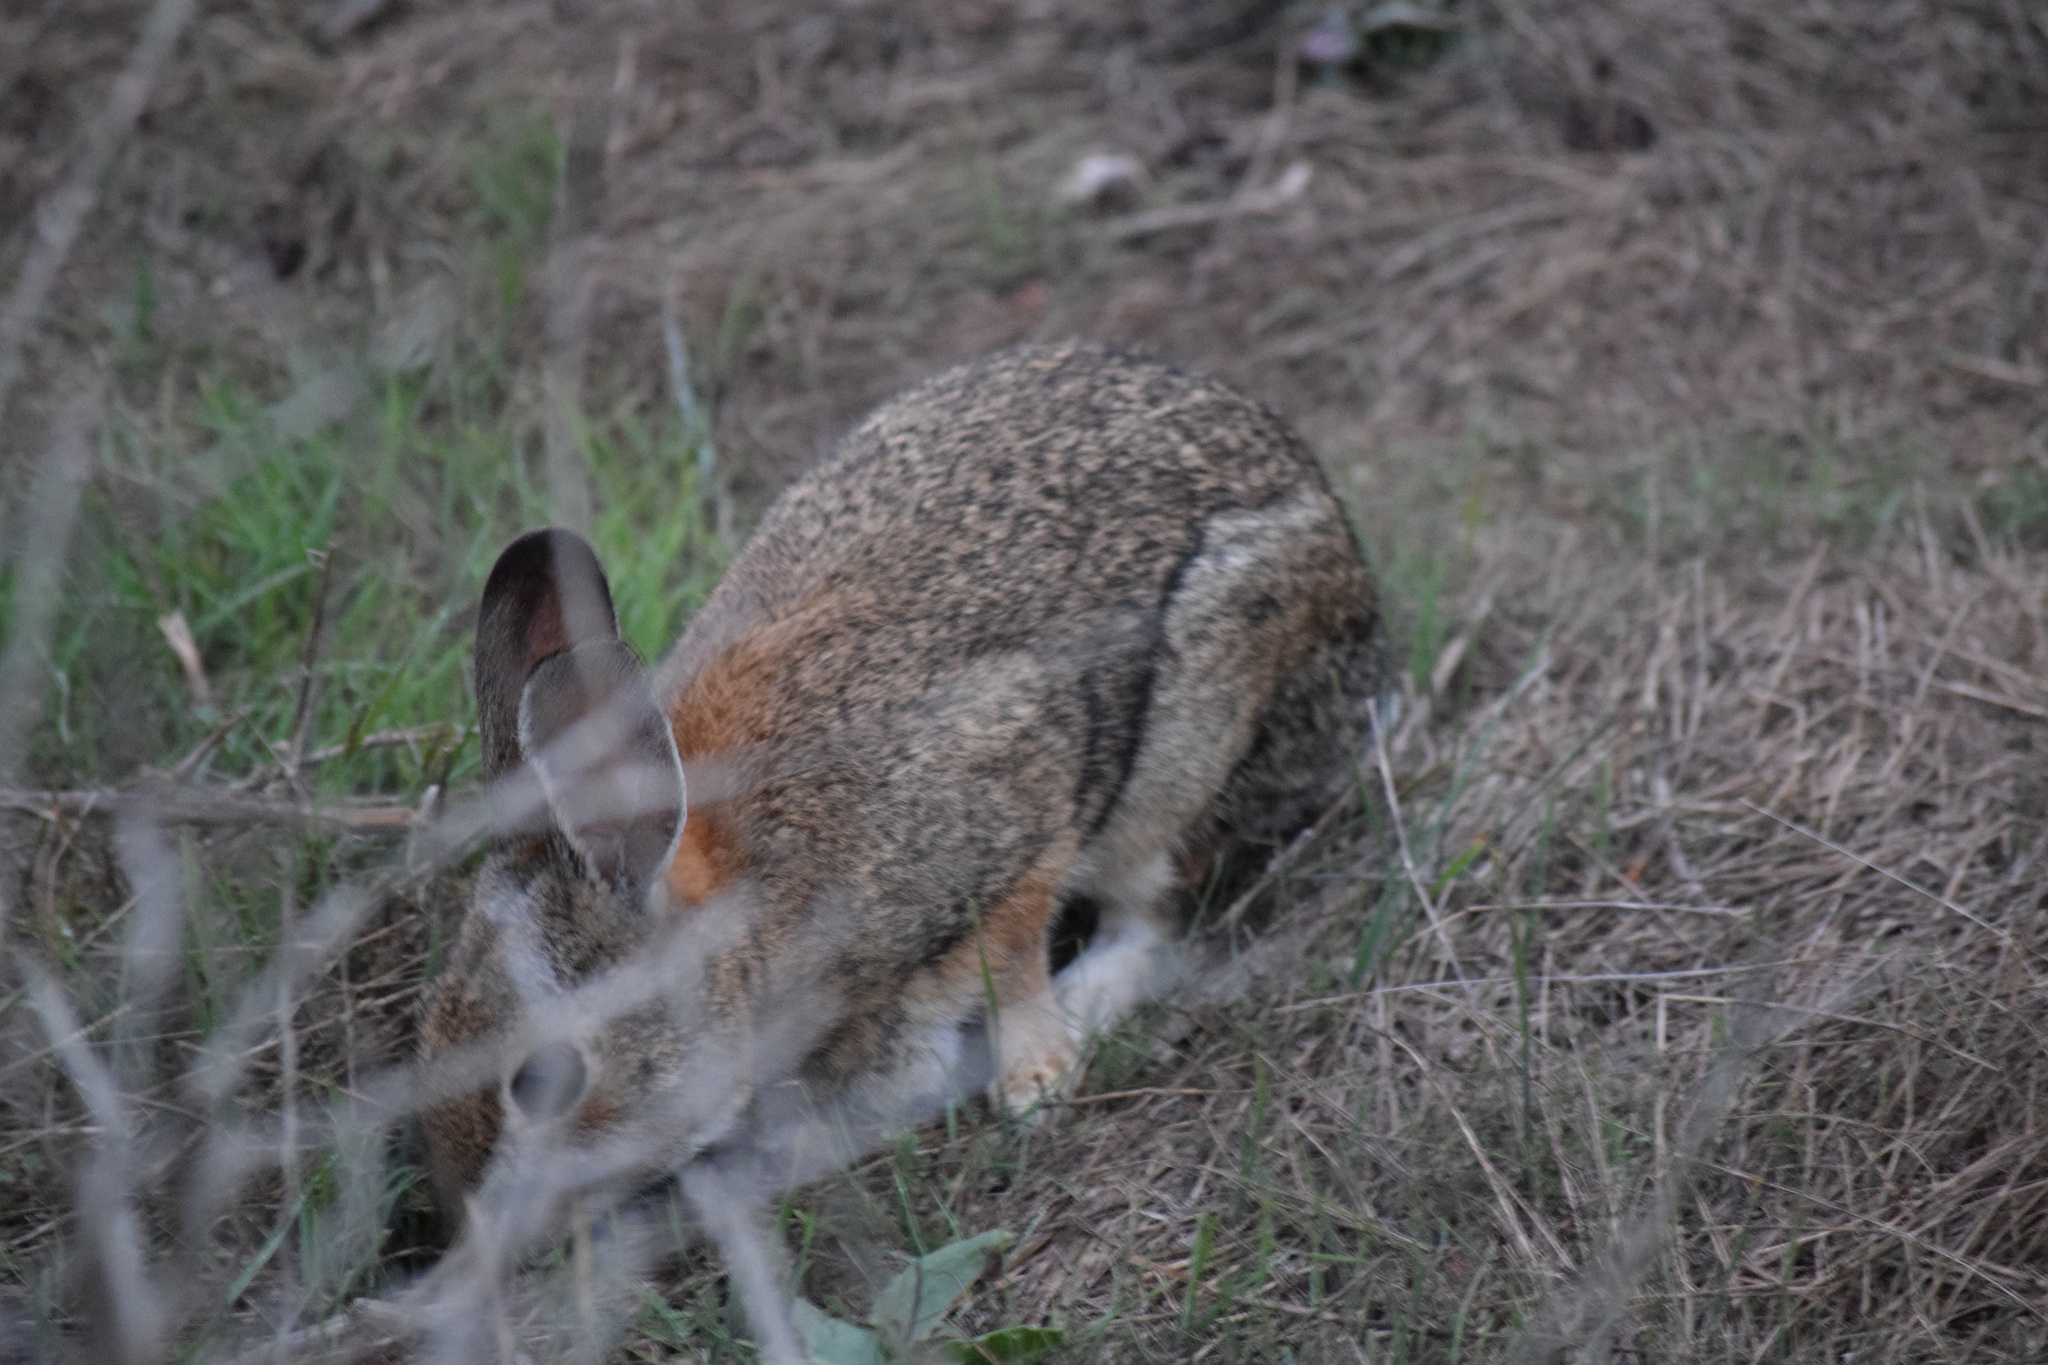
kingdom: Animalia
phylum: Chordata
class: Mammalia
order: Lagomorpha
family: Leporidae
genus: Sylvilagus
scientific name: Sylvilagus audubonii
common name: Desert cottontail
